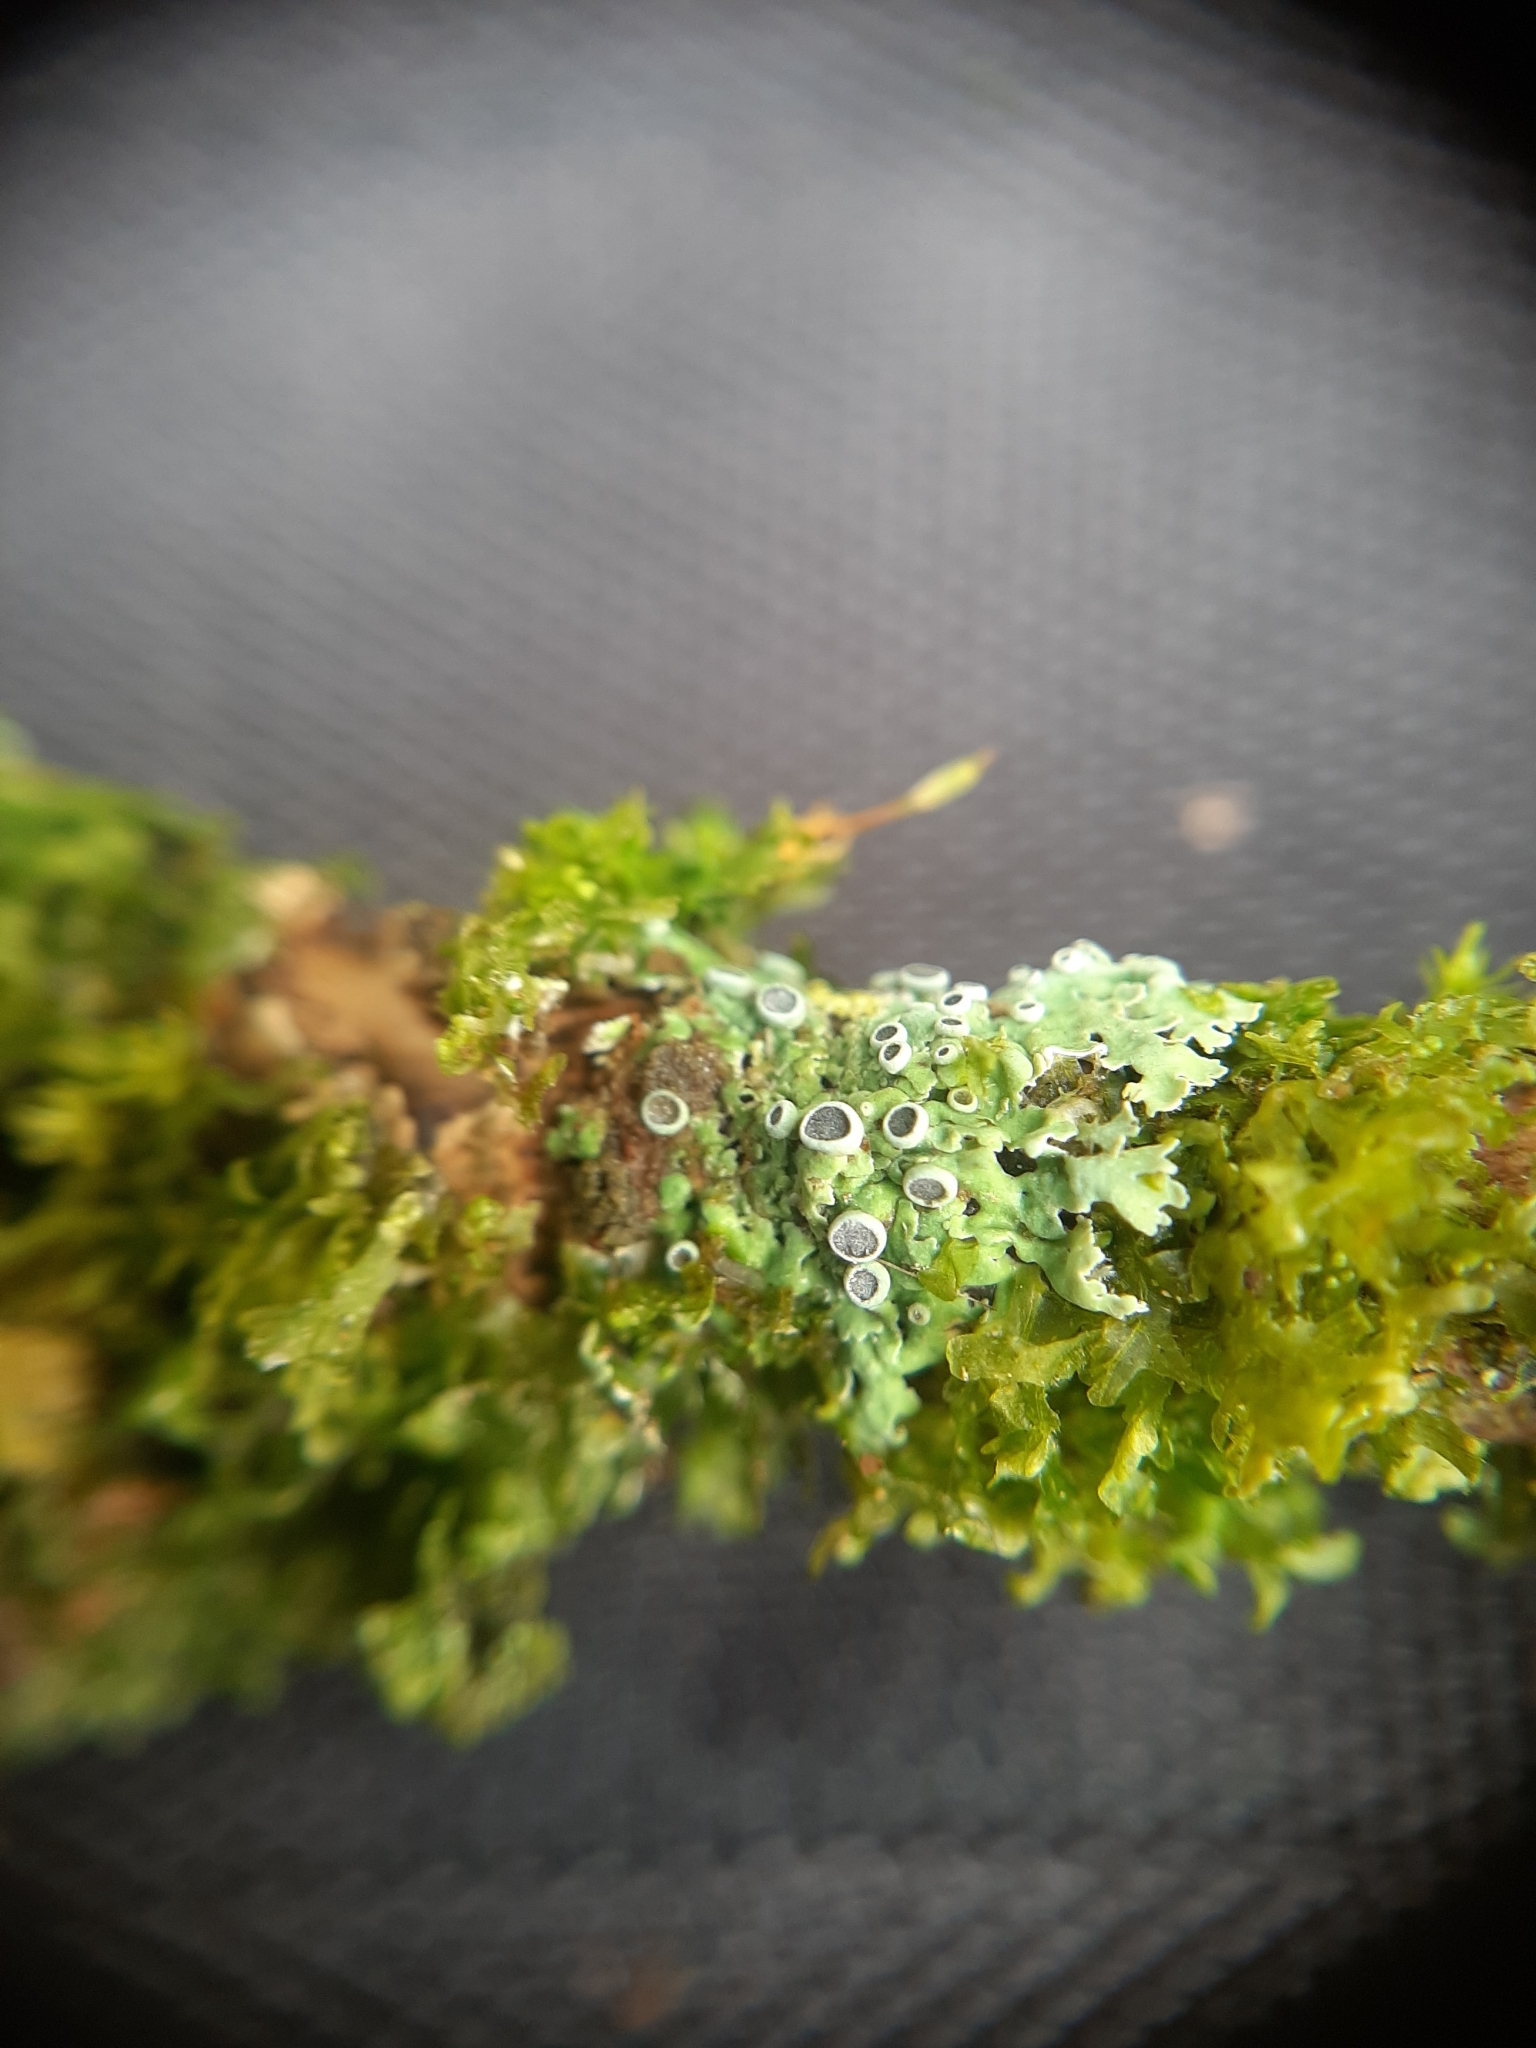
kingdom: Fungi
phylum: Ascomycota
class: Lecanoromycetes
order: Caliciales
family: Physciaceae
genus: Kashiwadia
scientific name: Kashiwadia jackii
